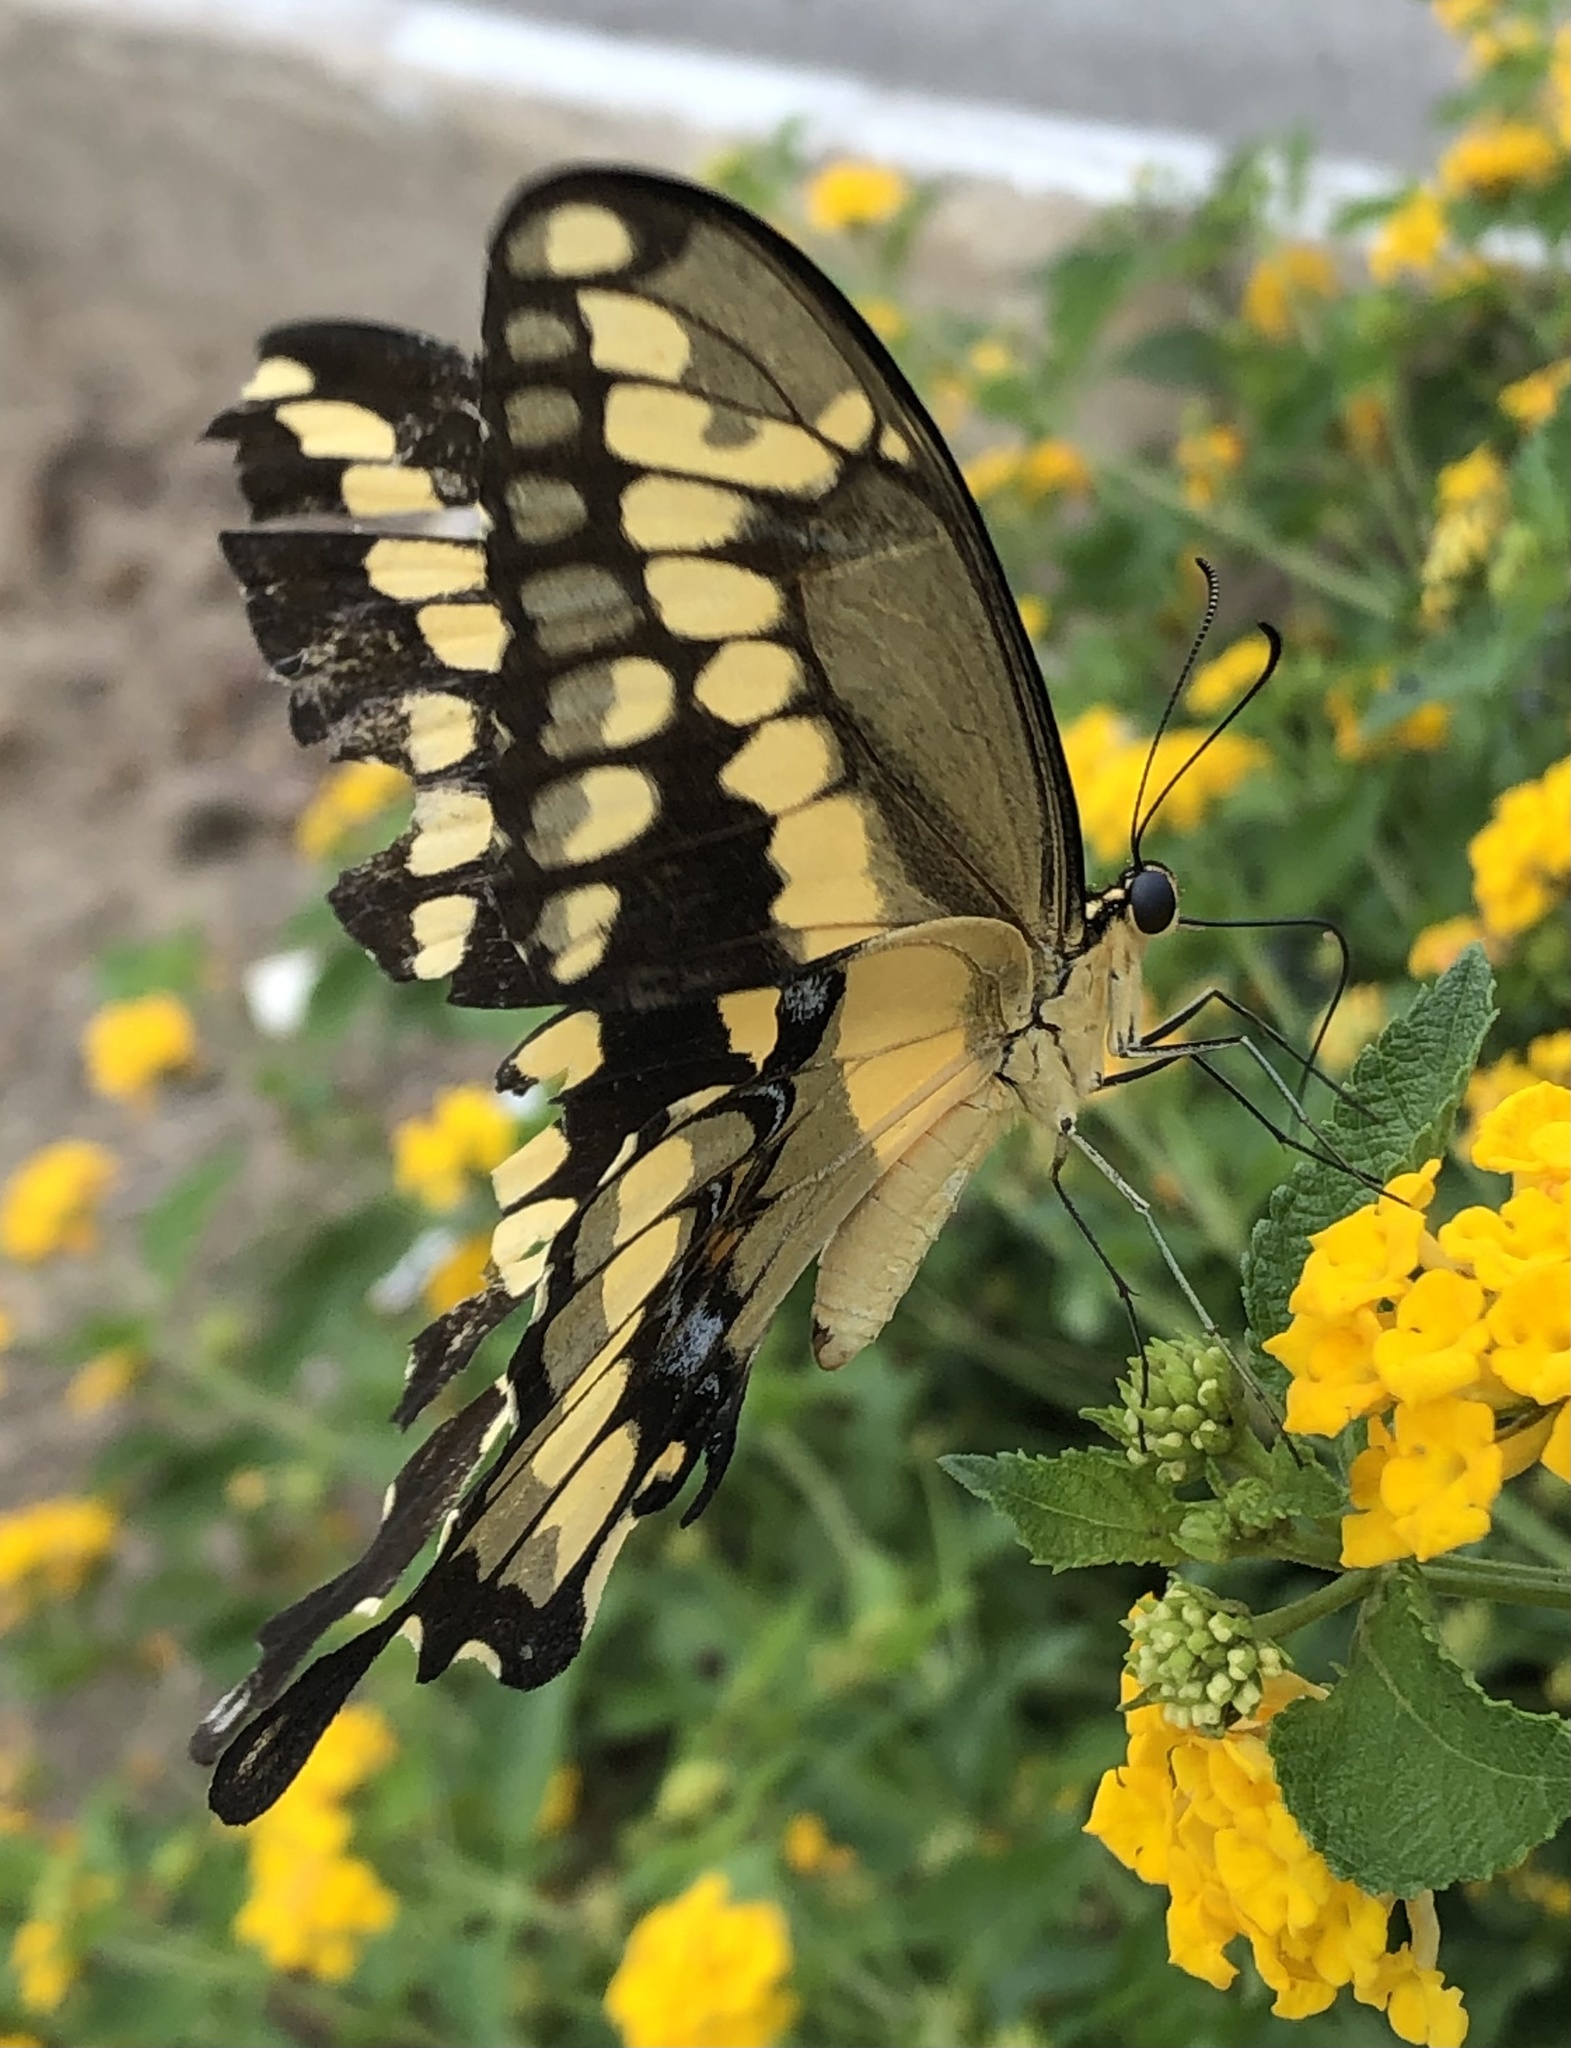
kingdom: Animalia
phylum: Arthropoda
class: Insecta
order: Lepidoptera
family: Papilionidae
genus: Papilio
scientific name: Papilio cresphontes
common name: Giant swallowtail
